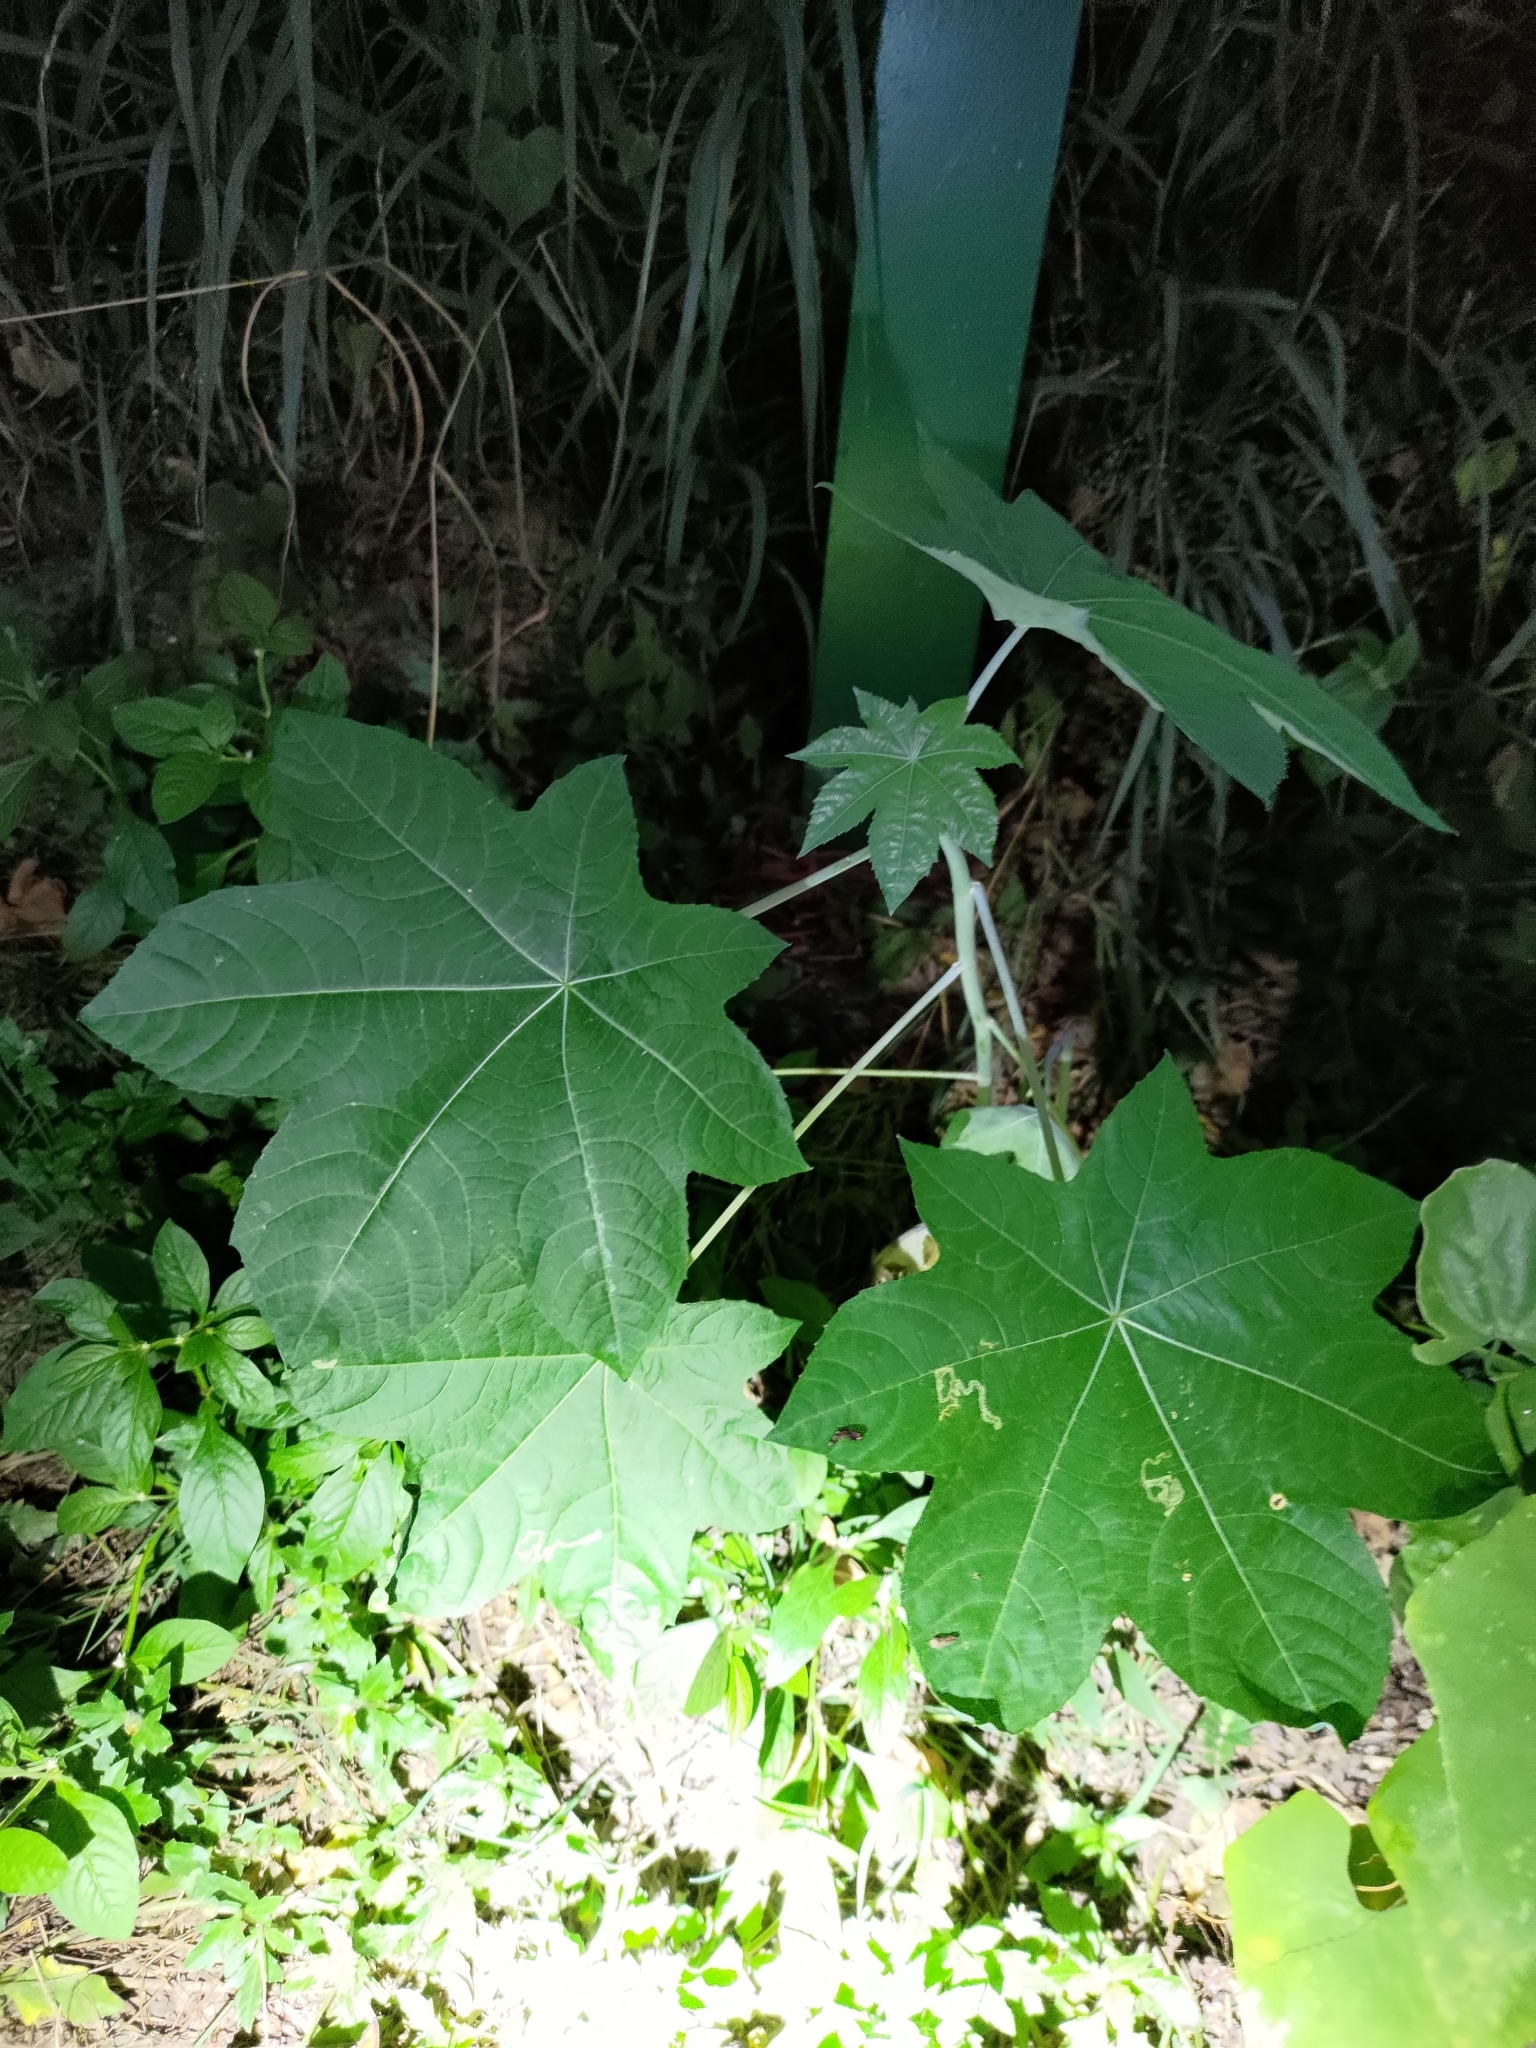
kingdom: Plantae
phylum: Tracheophyta
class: Magnoliopsida
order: Malpighiales
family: Euphorbiaceae
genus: Ricinus
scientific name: Ricinus communis
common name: Castor-oil-plant
